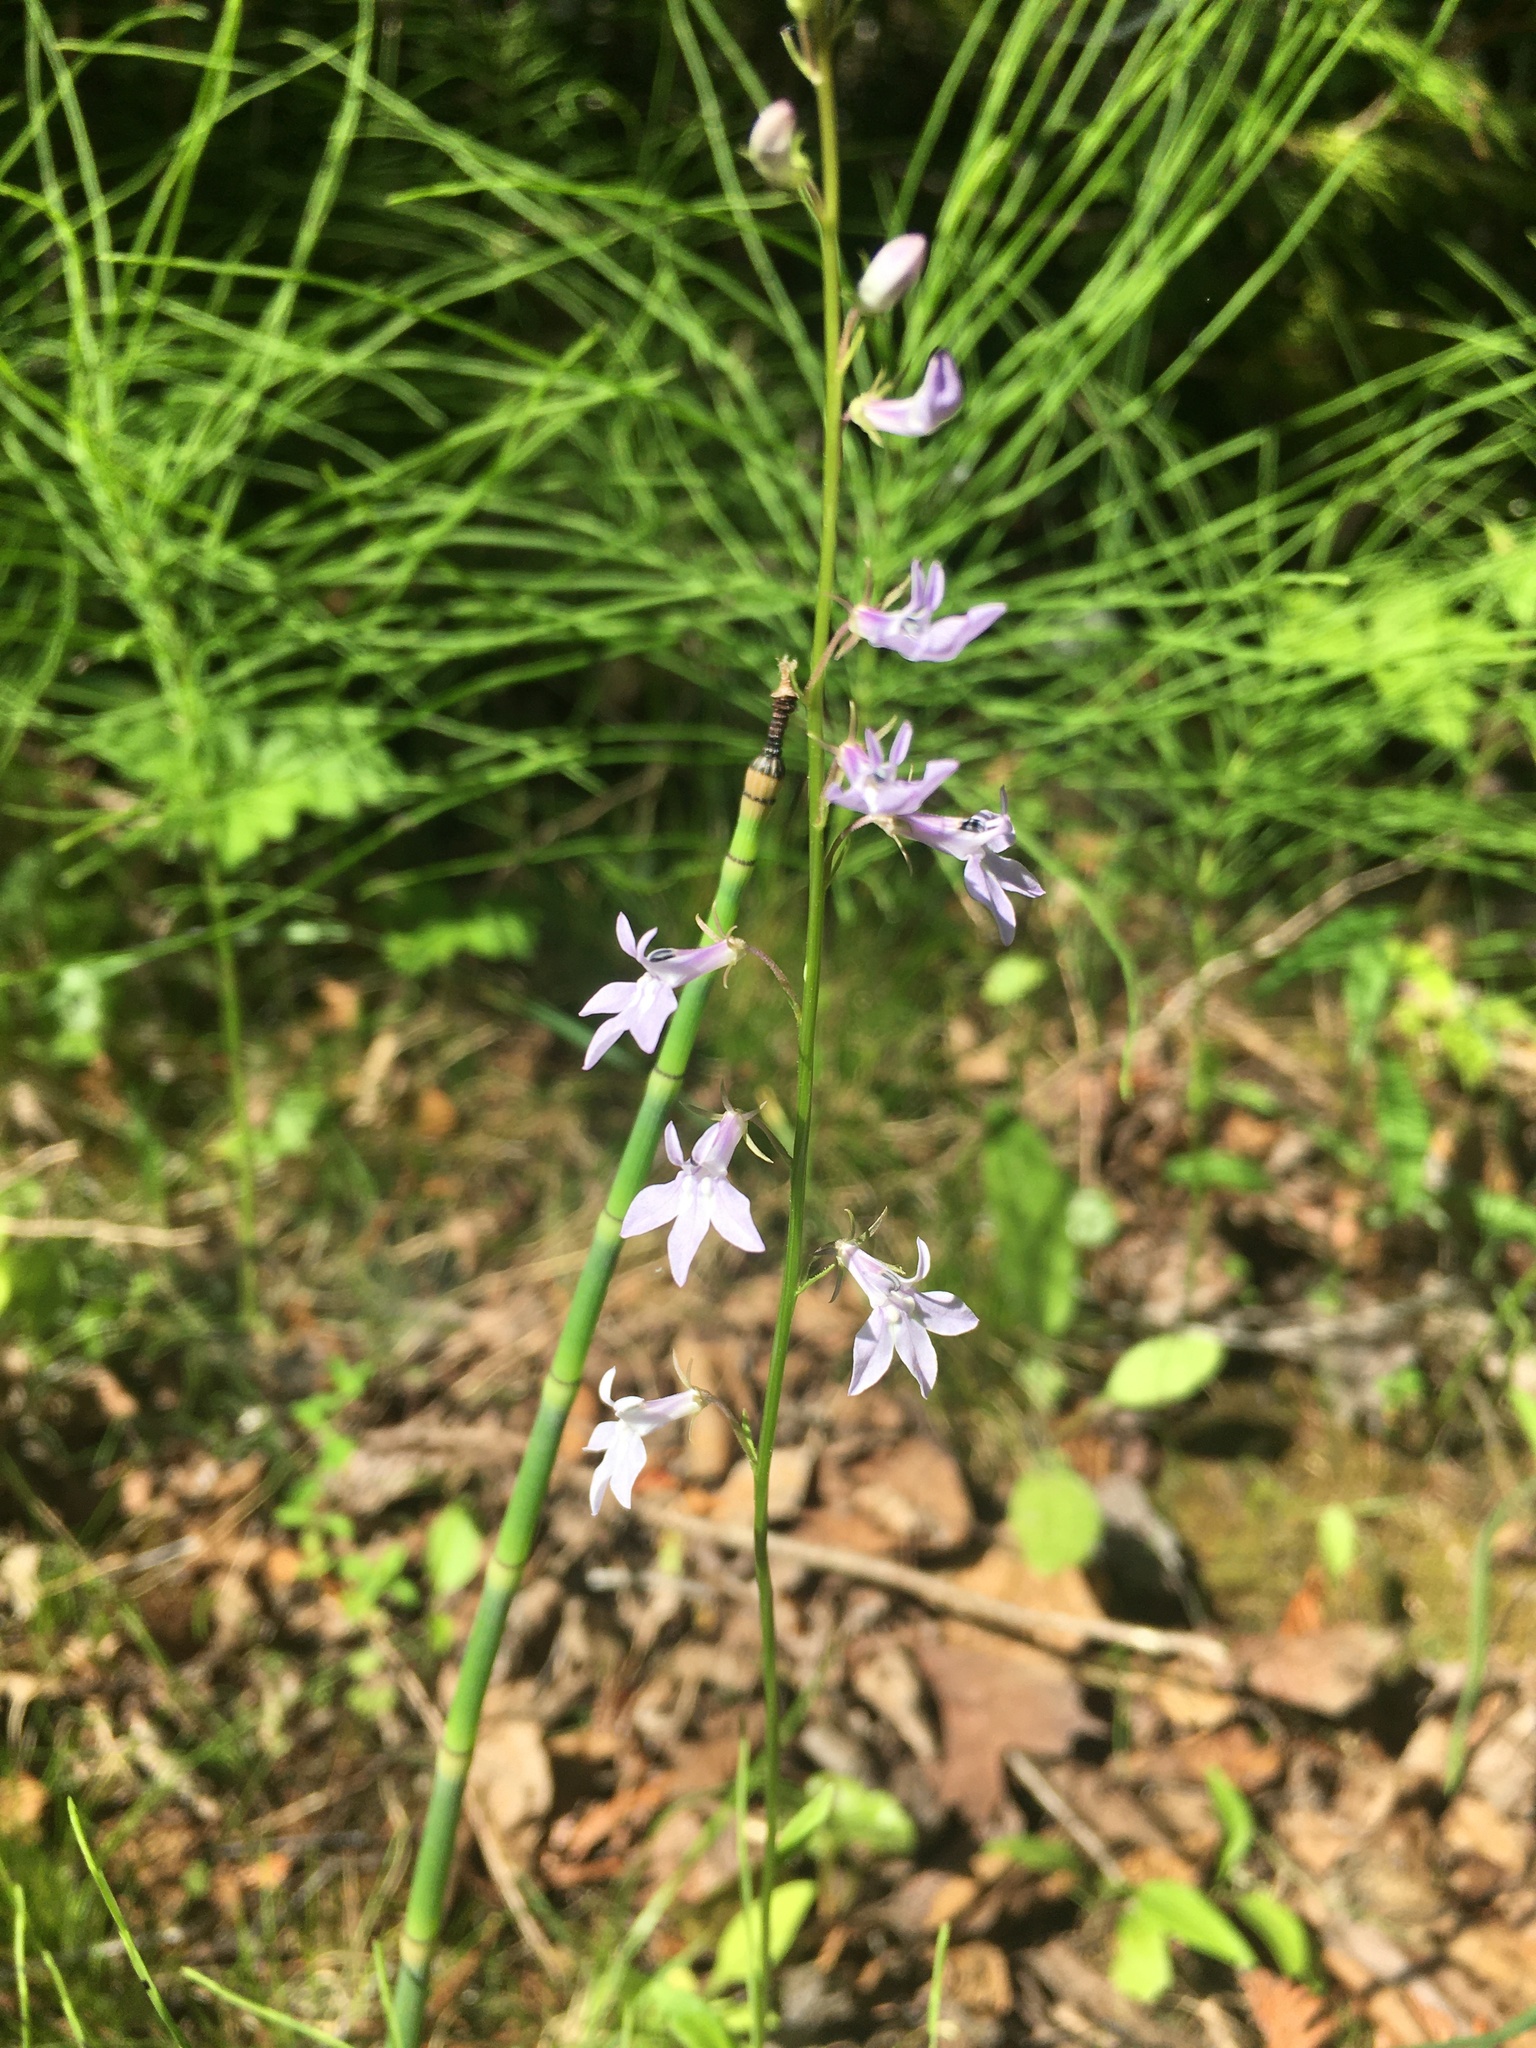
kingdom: Plantae
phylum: Tracheophyta
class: Magnoliopsida
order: Asterales
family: Campanulaceae
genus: Lobelia
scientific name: Lobelia spicata
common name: Pale-spike lobelia
